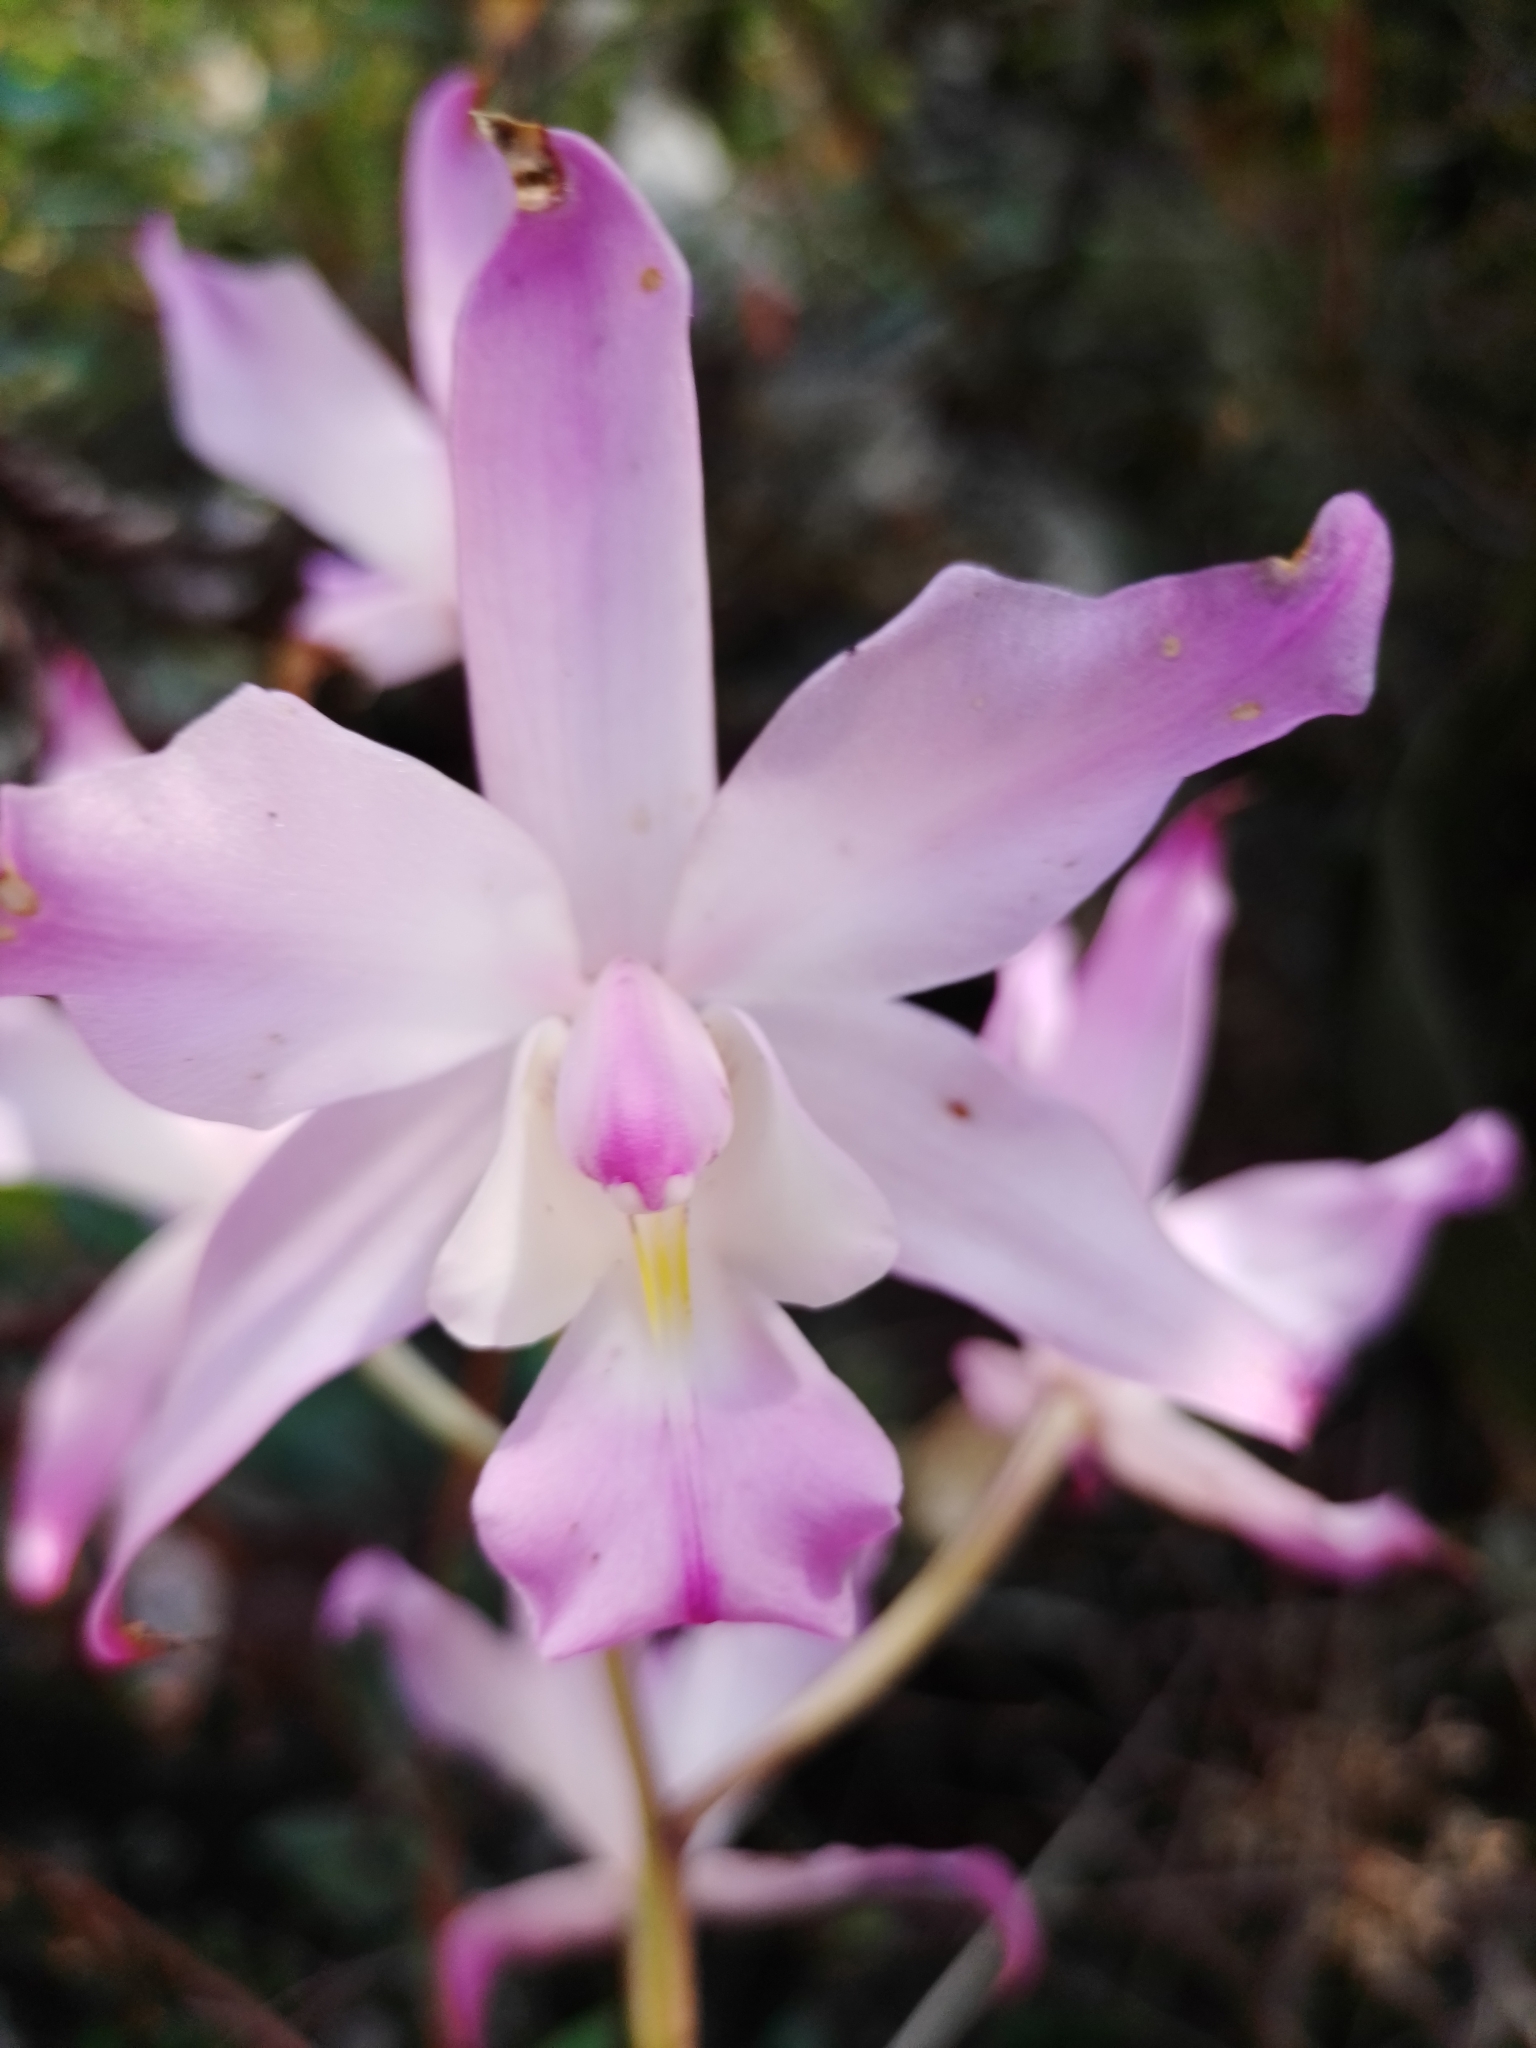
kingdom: Plantae
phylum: Tracheophyta
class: Liliopsida
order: Asparagales
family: Orchidaceae
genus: Laelia
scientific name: Laelia autumnalis
